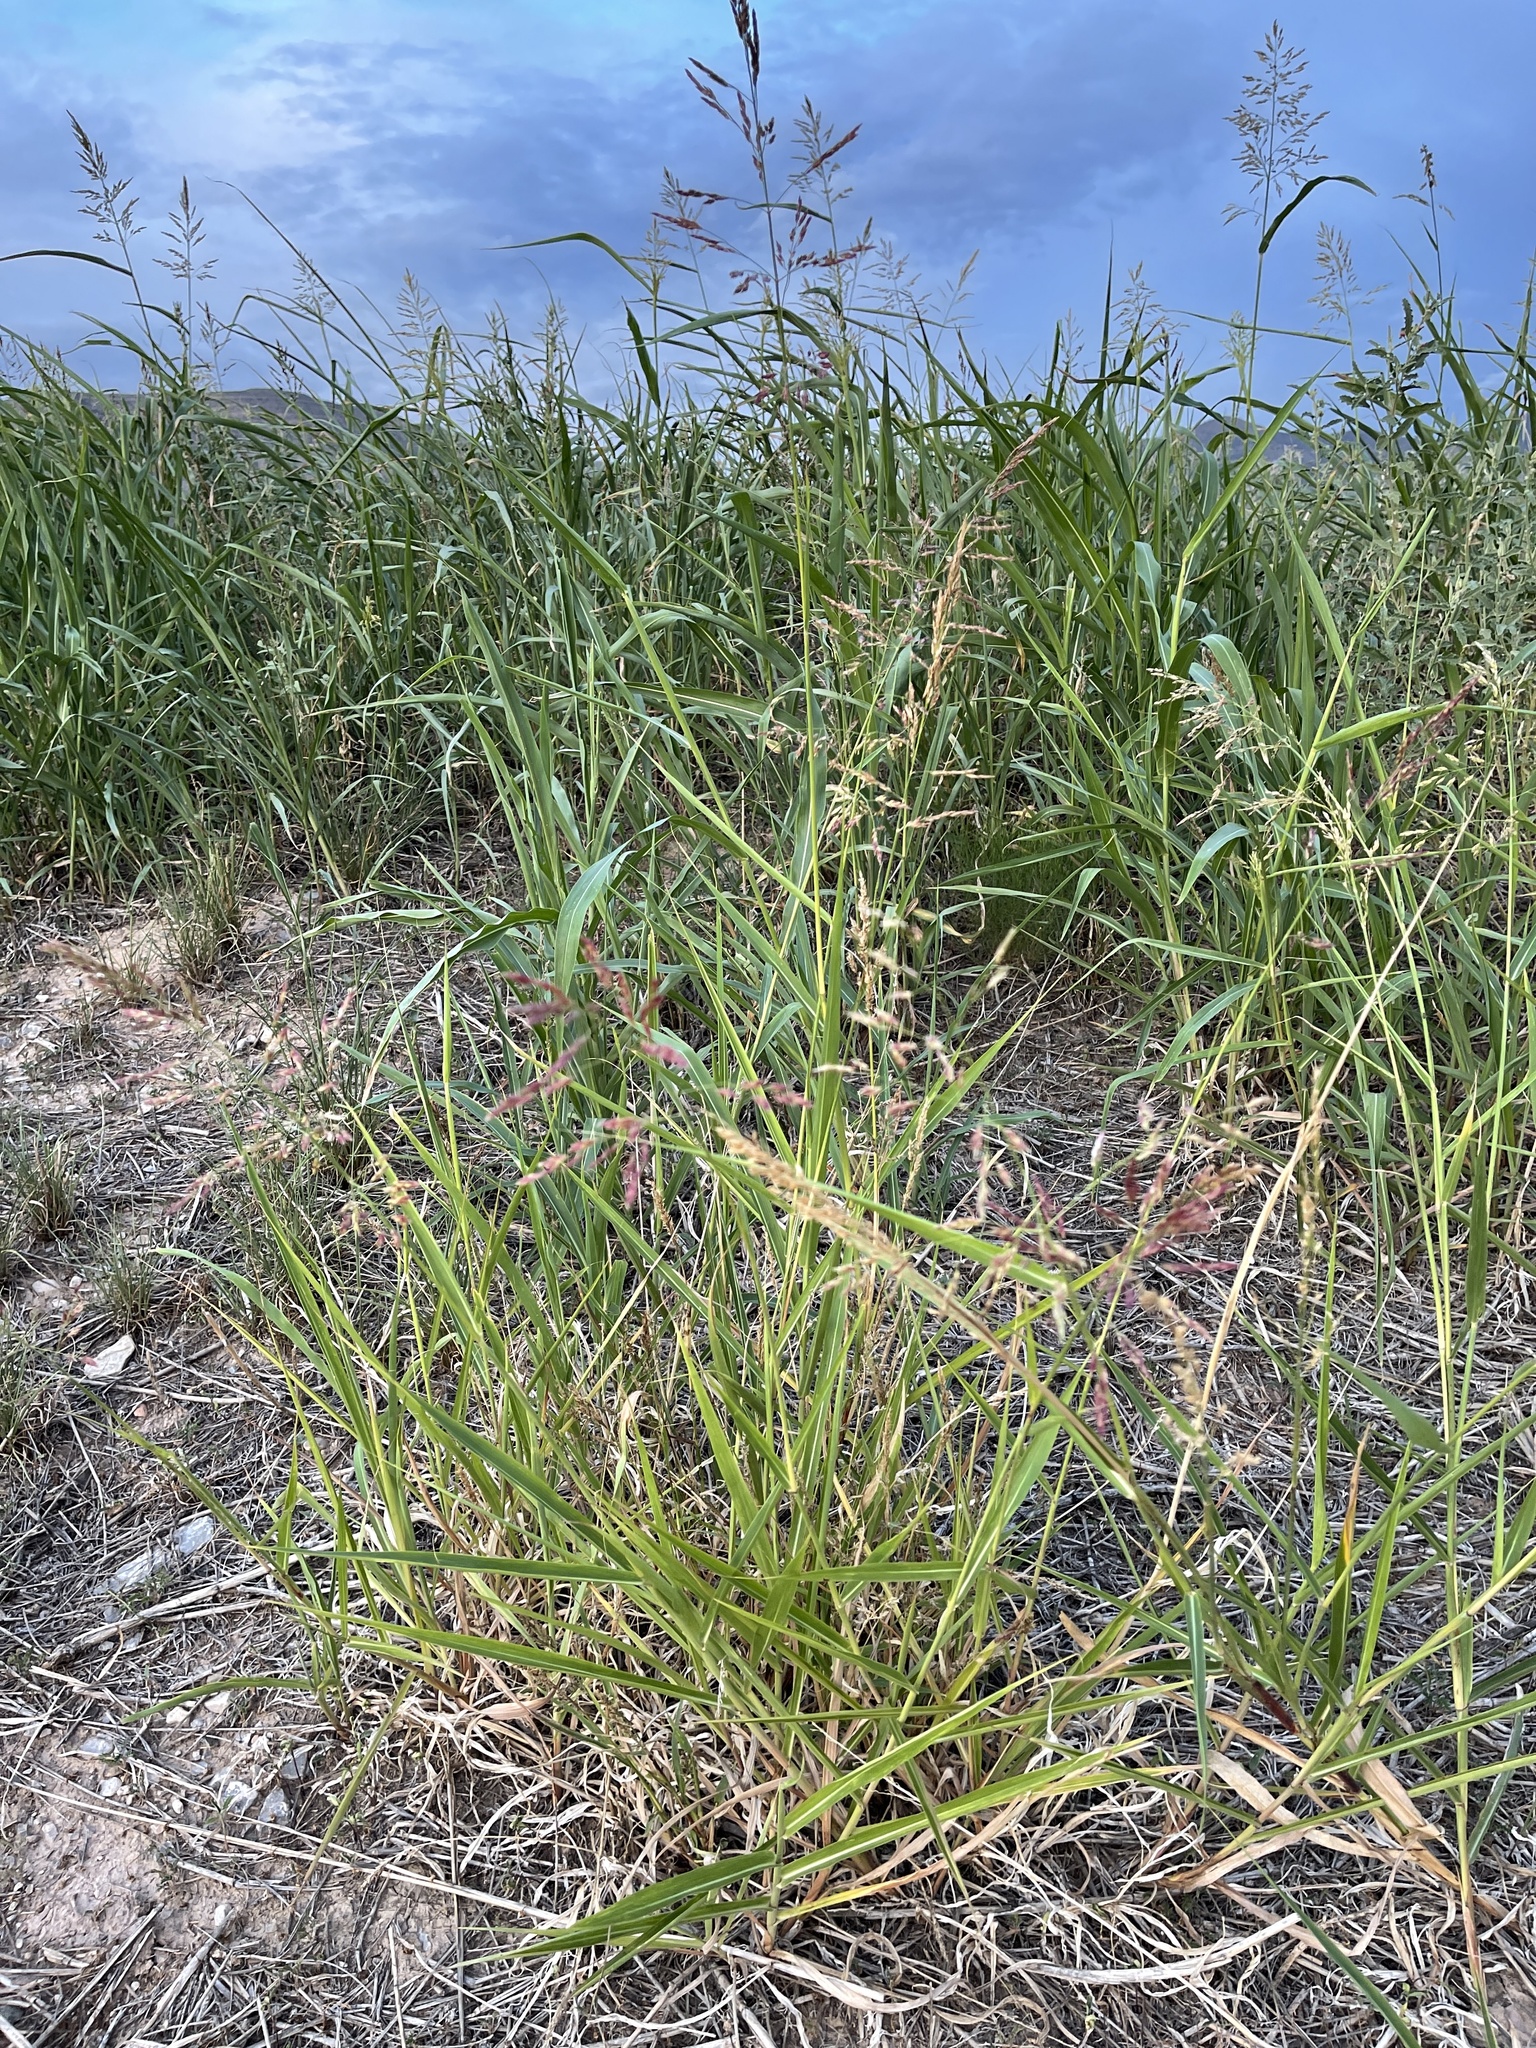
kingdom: Plantae
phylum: Tracheophyta
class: Liliopsida
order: Poales
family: Poaceae
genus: Sorghum
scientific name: Sorghum halepense
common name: Johnson-grass
